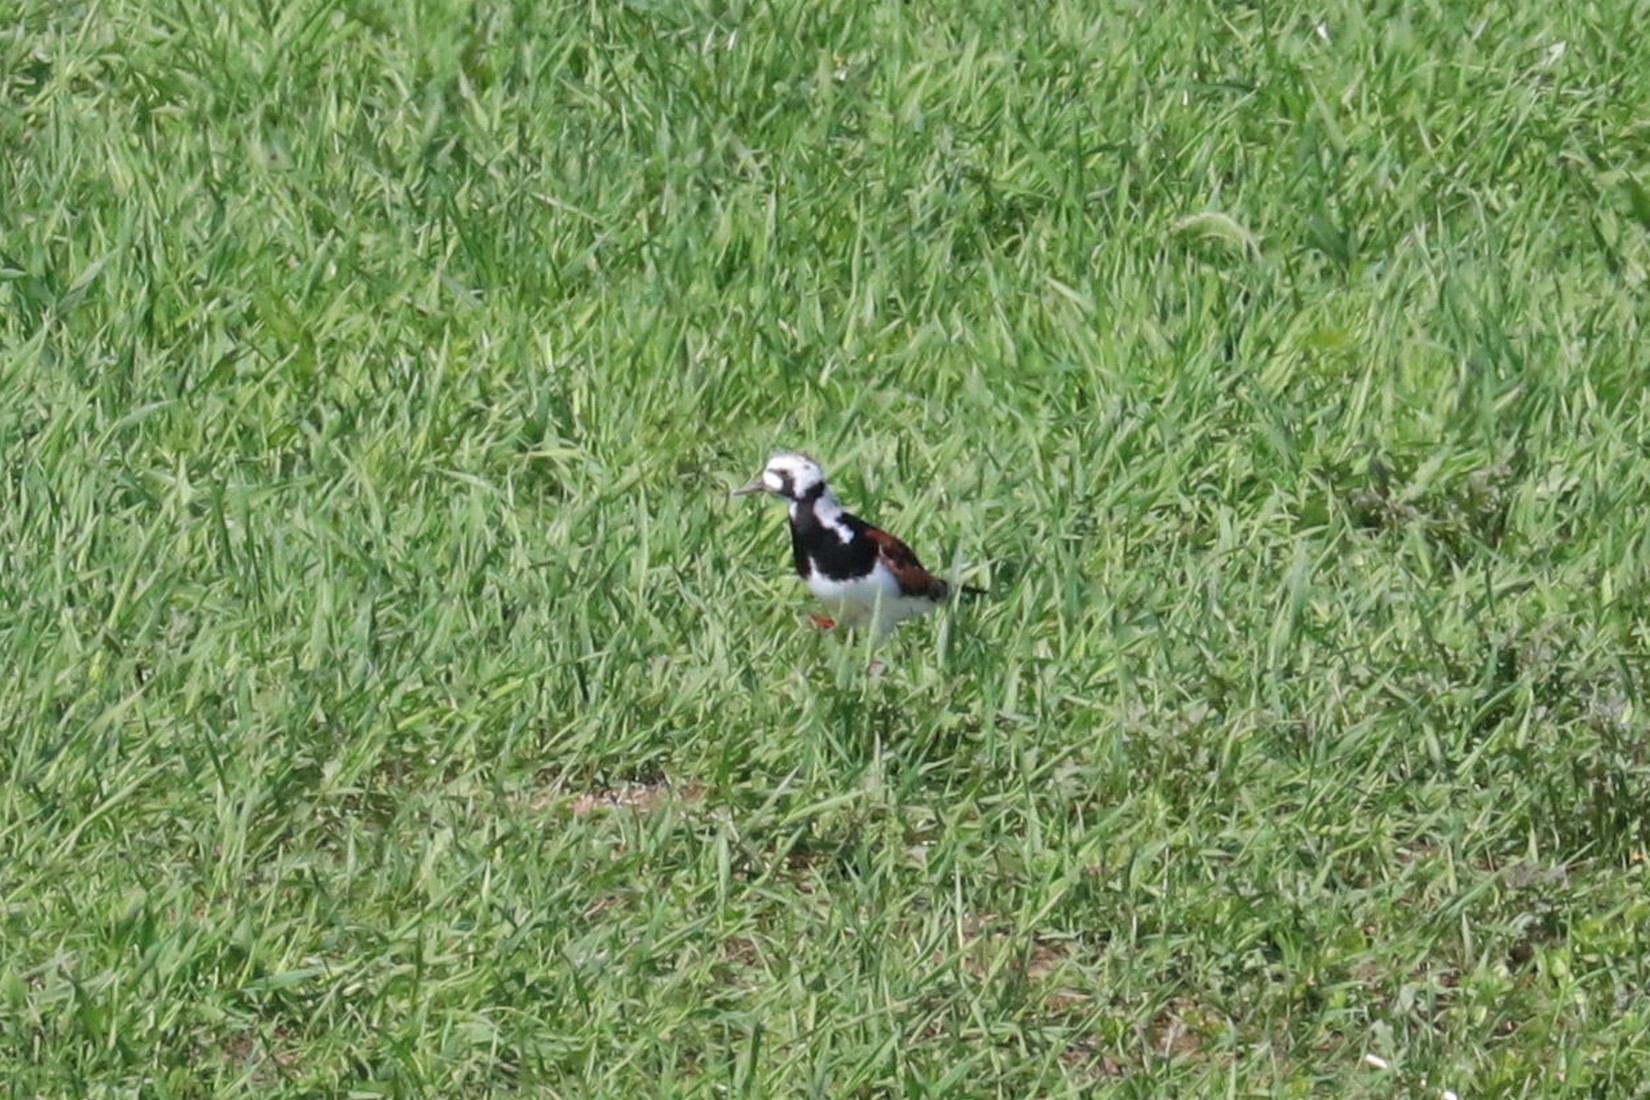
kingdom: Animalia
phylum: Chordata
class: Aves
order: Charadriiformes
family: Scolopacidae
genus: Arenaria
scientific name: Arenaria interpres
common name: Ruddy turnstone
